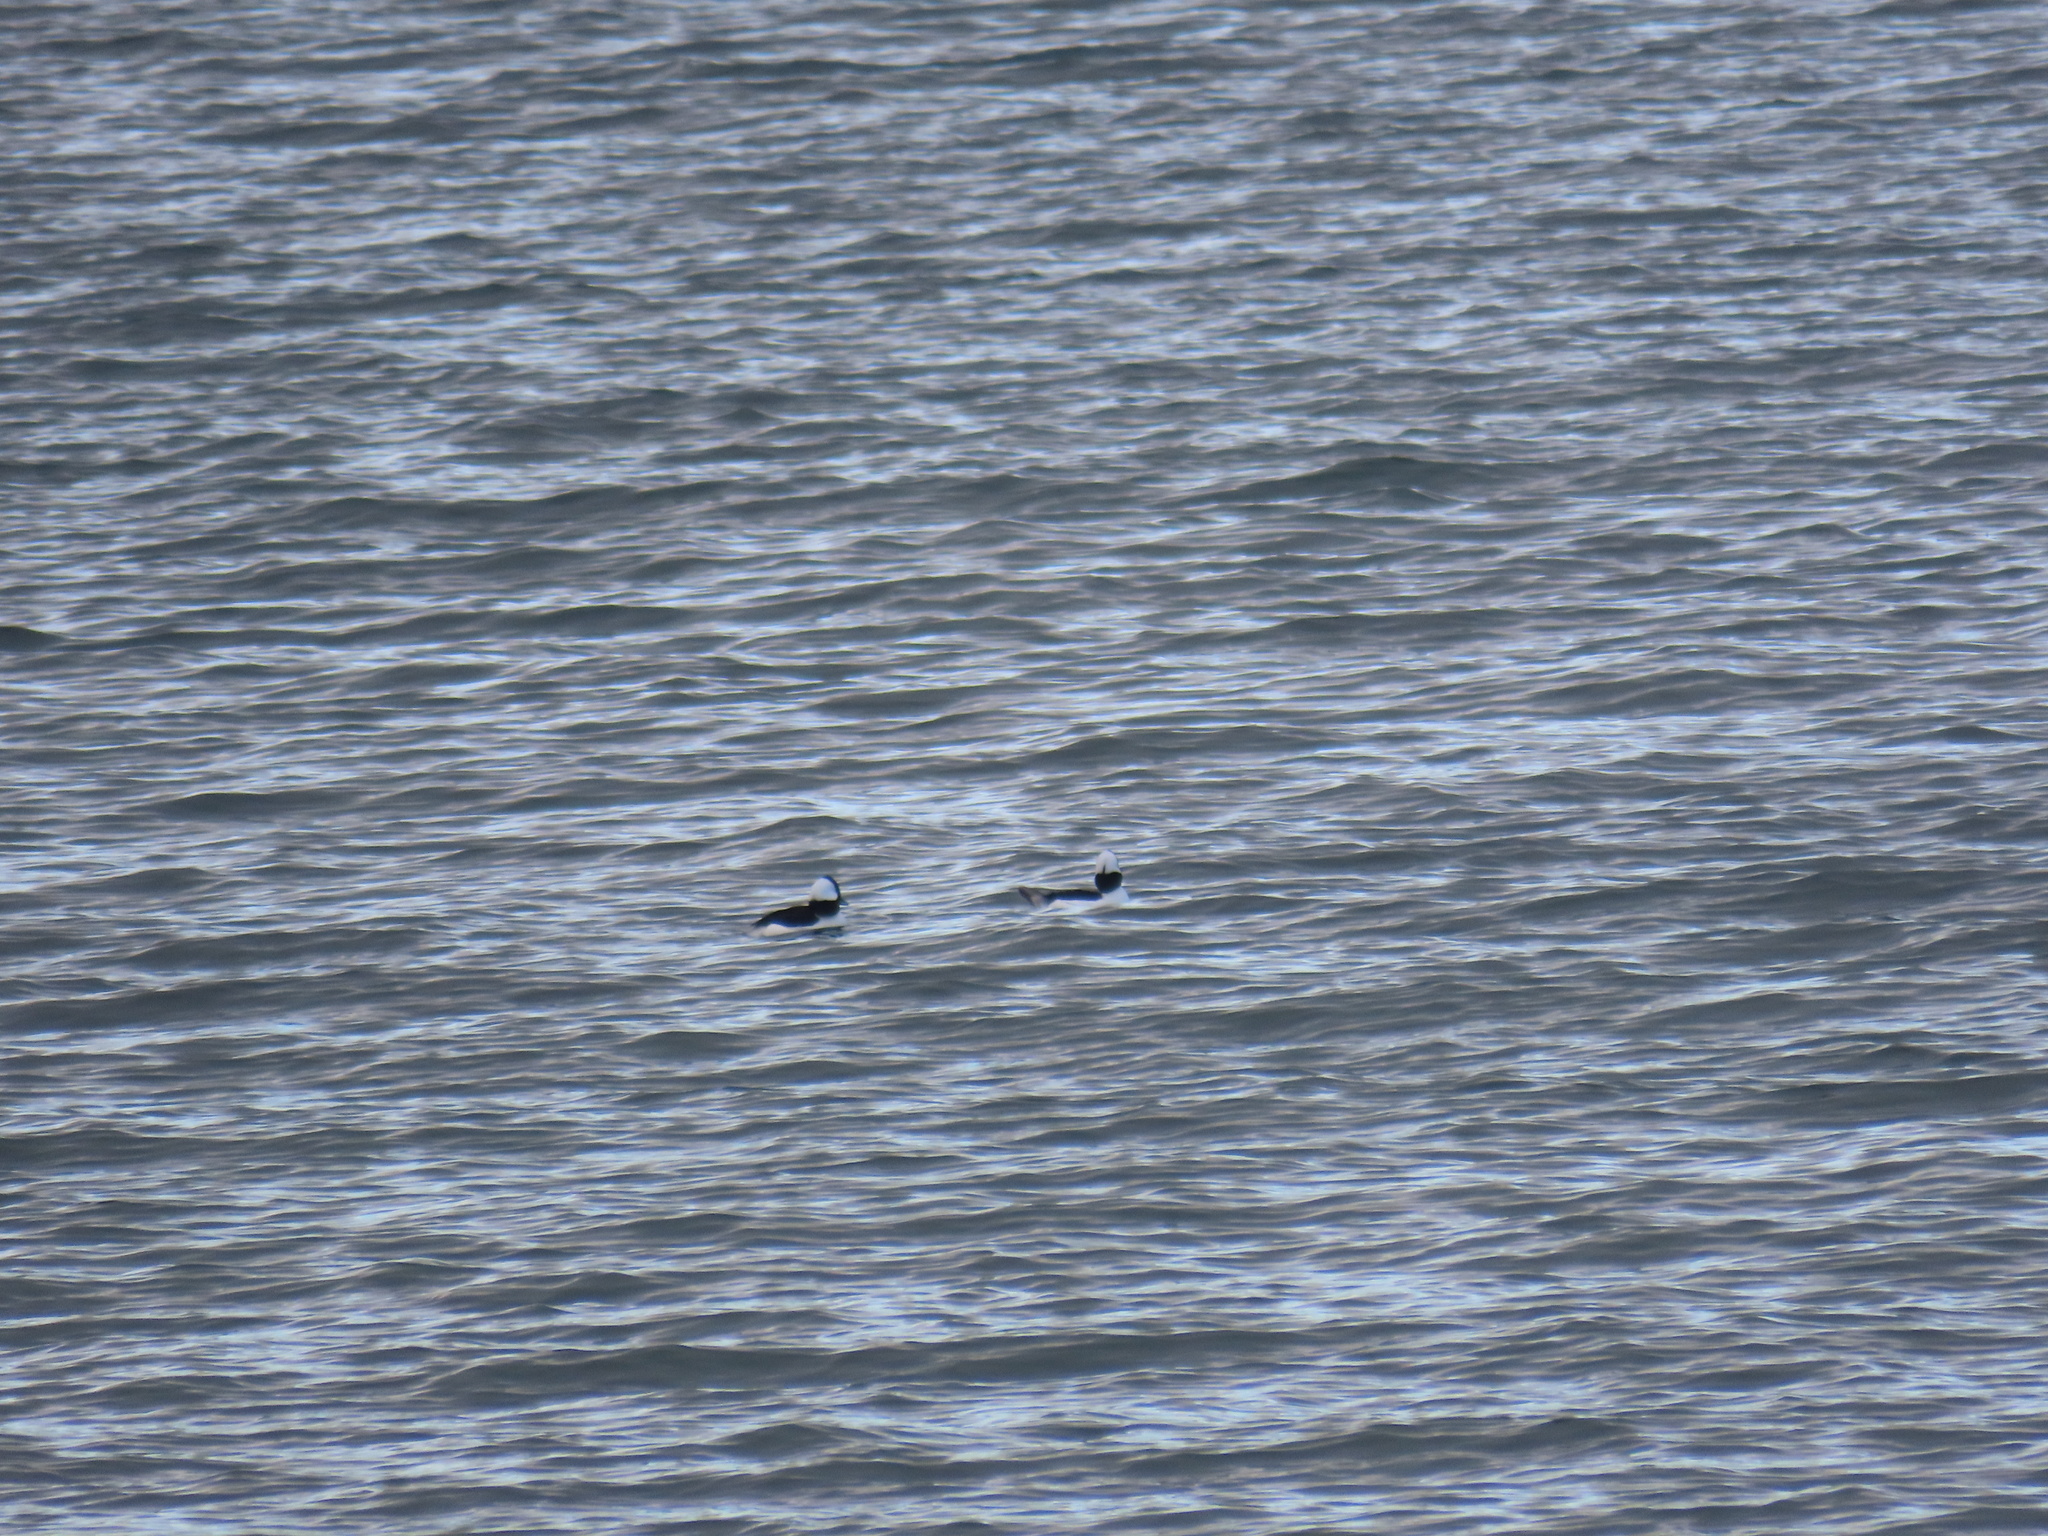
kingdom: Animalia
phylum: Chordata
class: Aves
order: Anseriformes
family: Anatidae
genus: Bucephala
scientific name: Bucephala albeola
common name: Bufflehead
